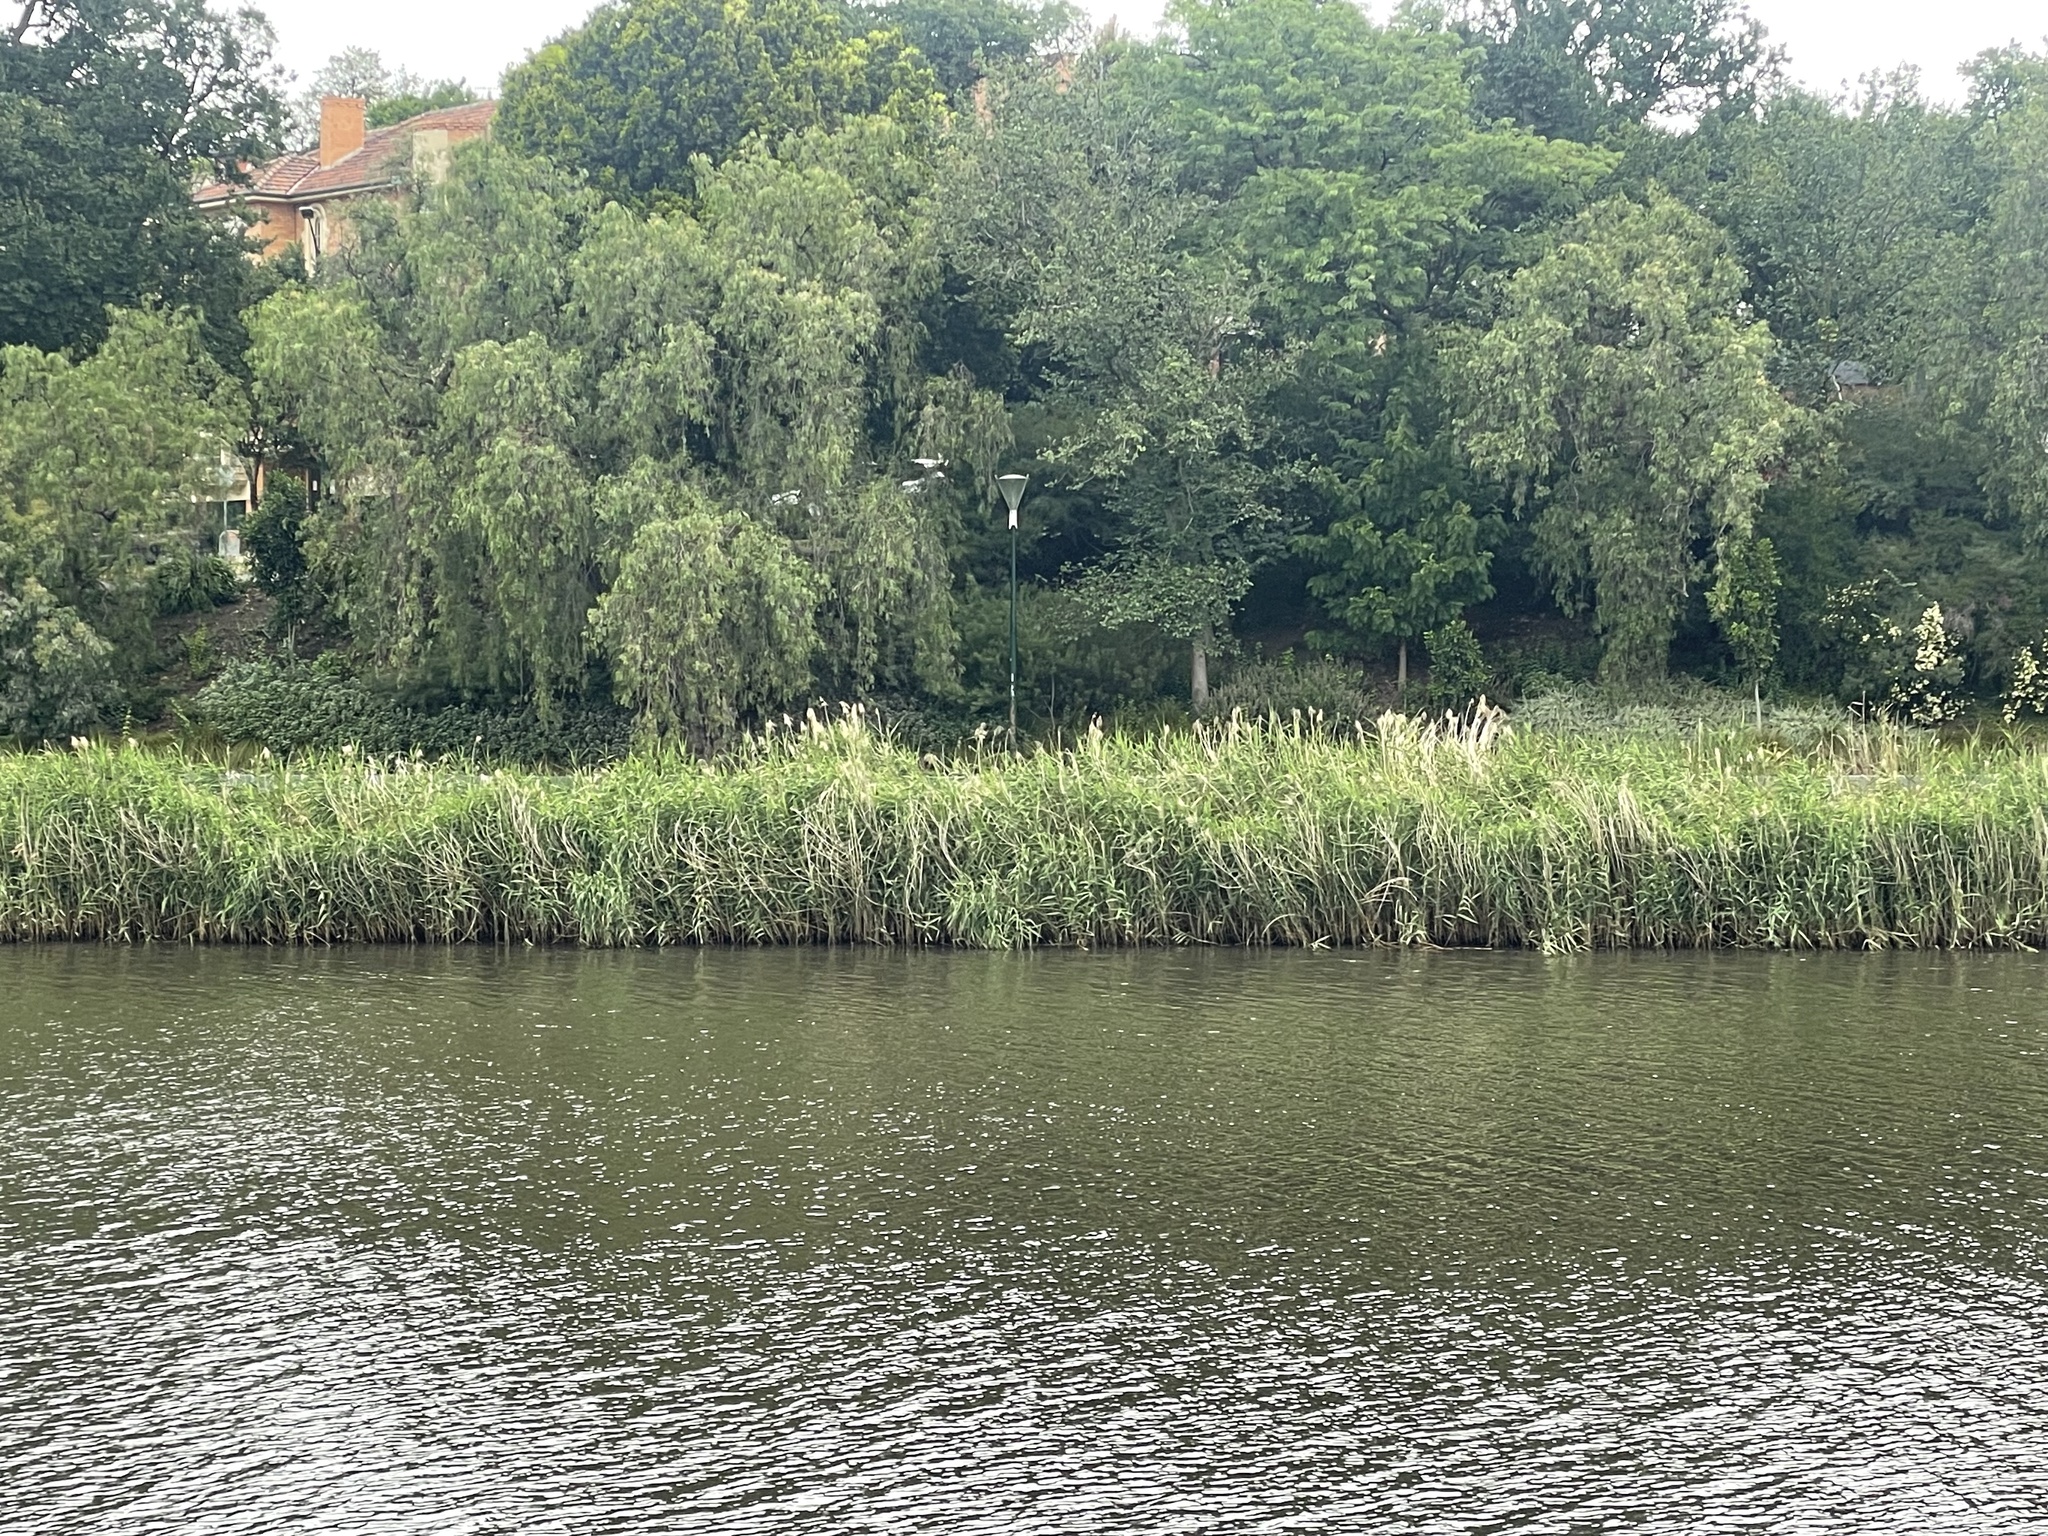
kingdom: Plantae
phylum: Tracheophyta
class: Liliopsida
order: Poales
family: Poaceae
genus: Phragmites
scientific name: Phragmites australis
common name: Common reed
